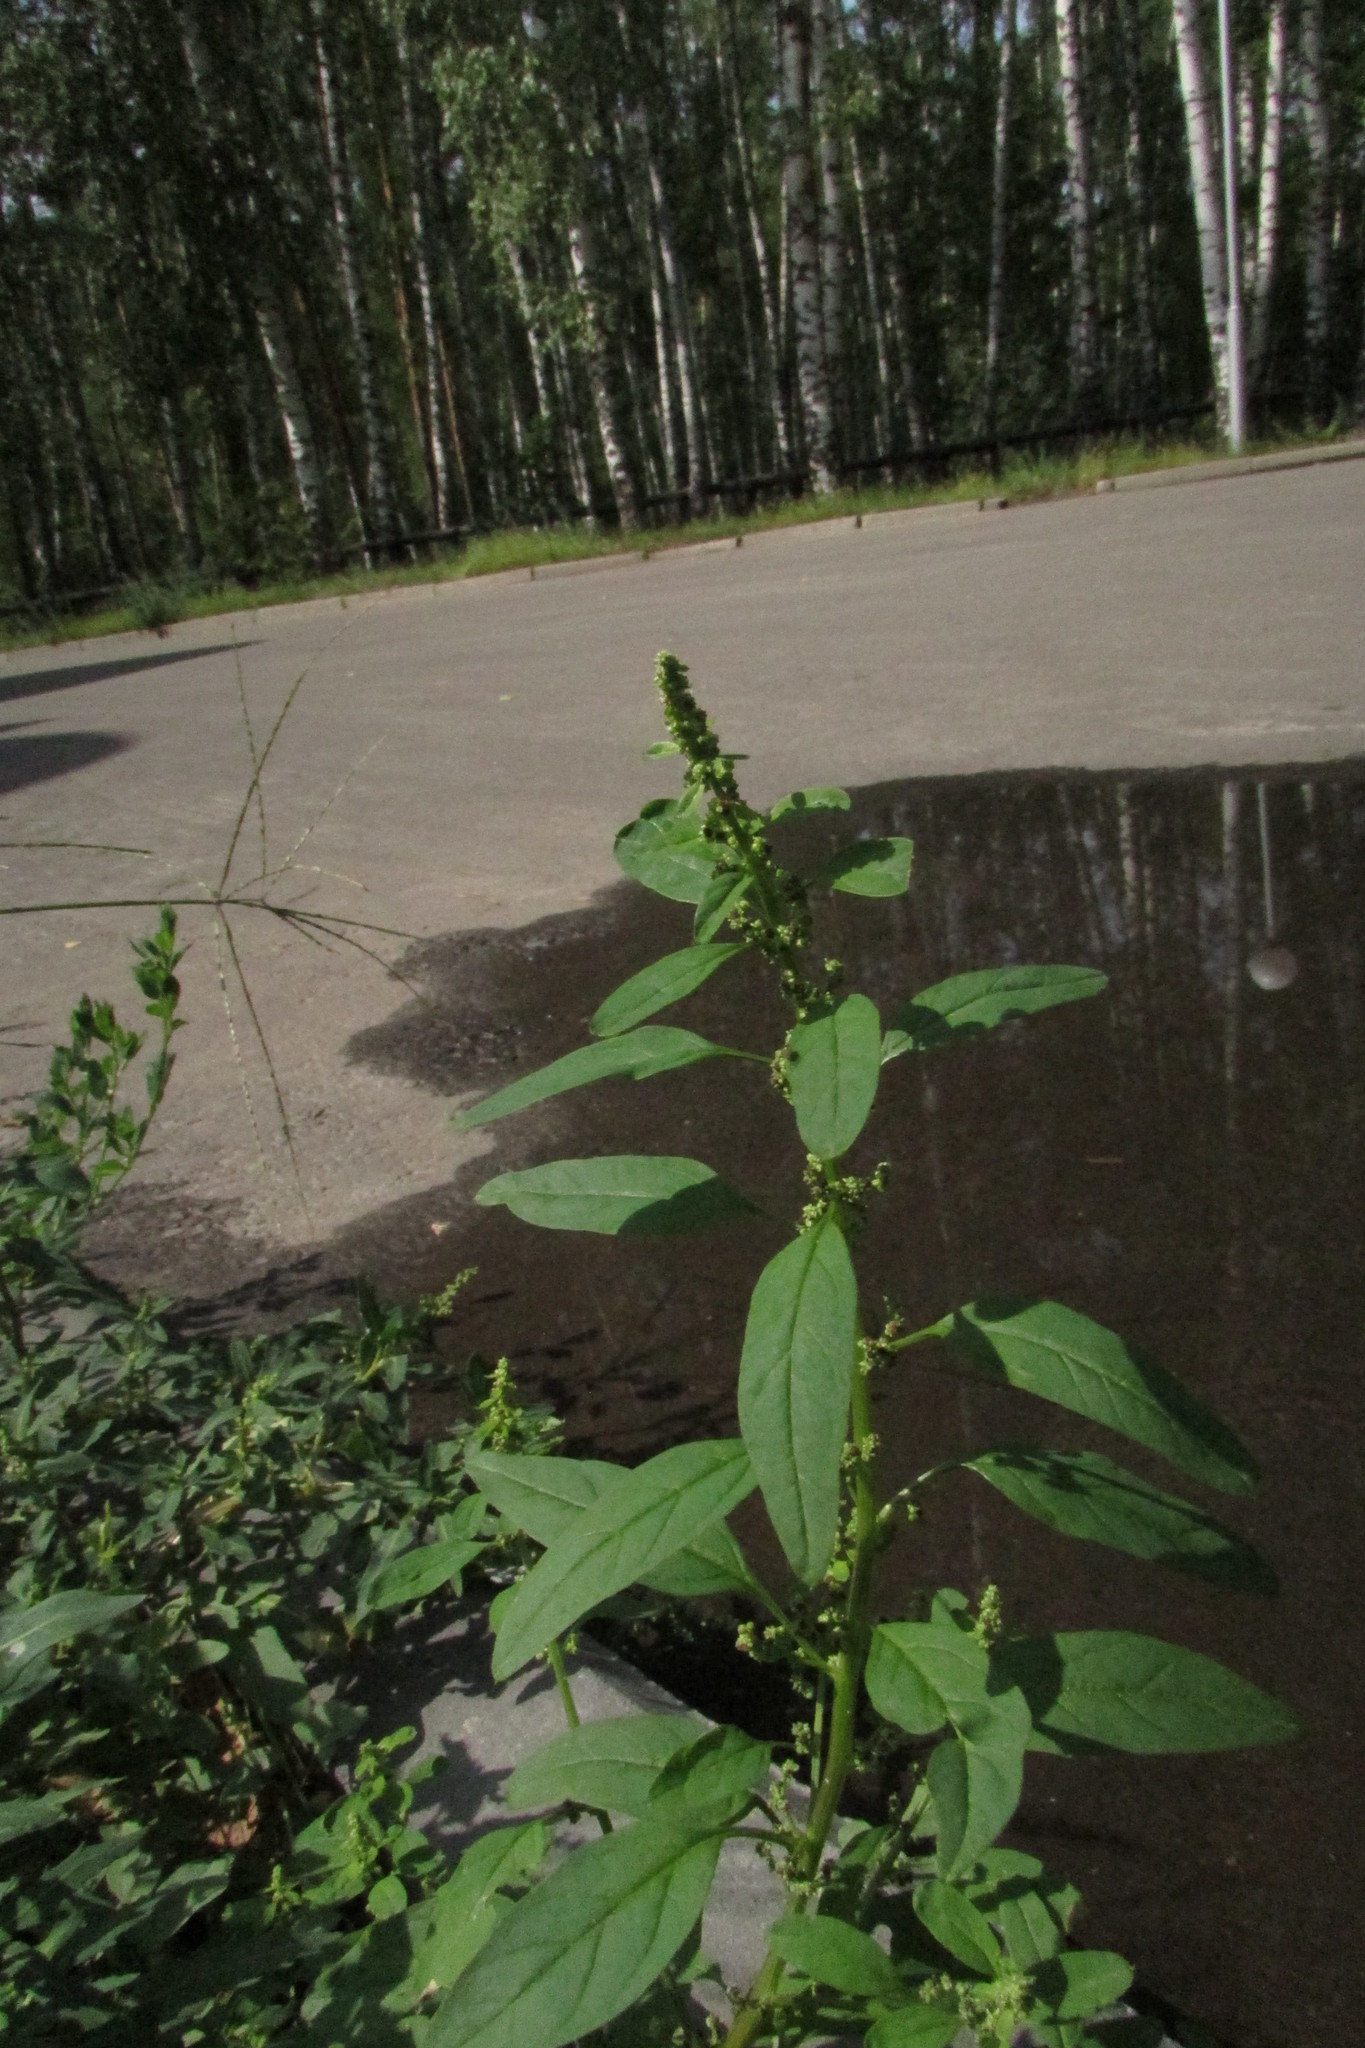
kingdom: Plantae
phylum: Tracheophyta
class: Magnoliopsida
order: Caryophyllales
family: Amaranthaceae
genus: Lipandra
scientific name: Lipandra polysperma
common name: Many-seed goosefoot
